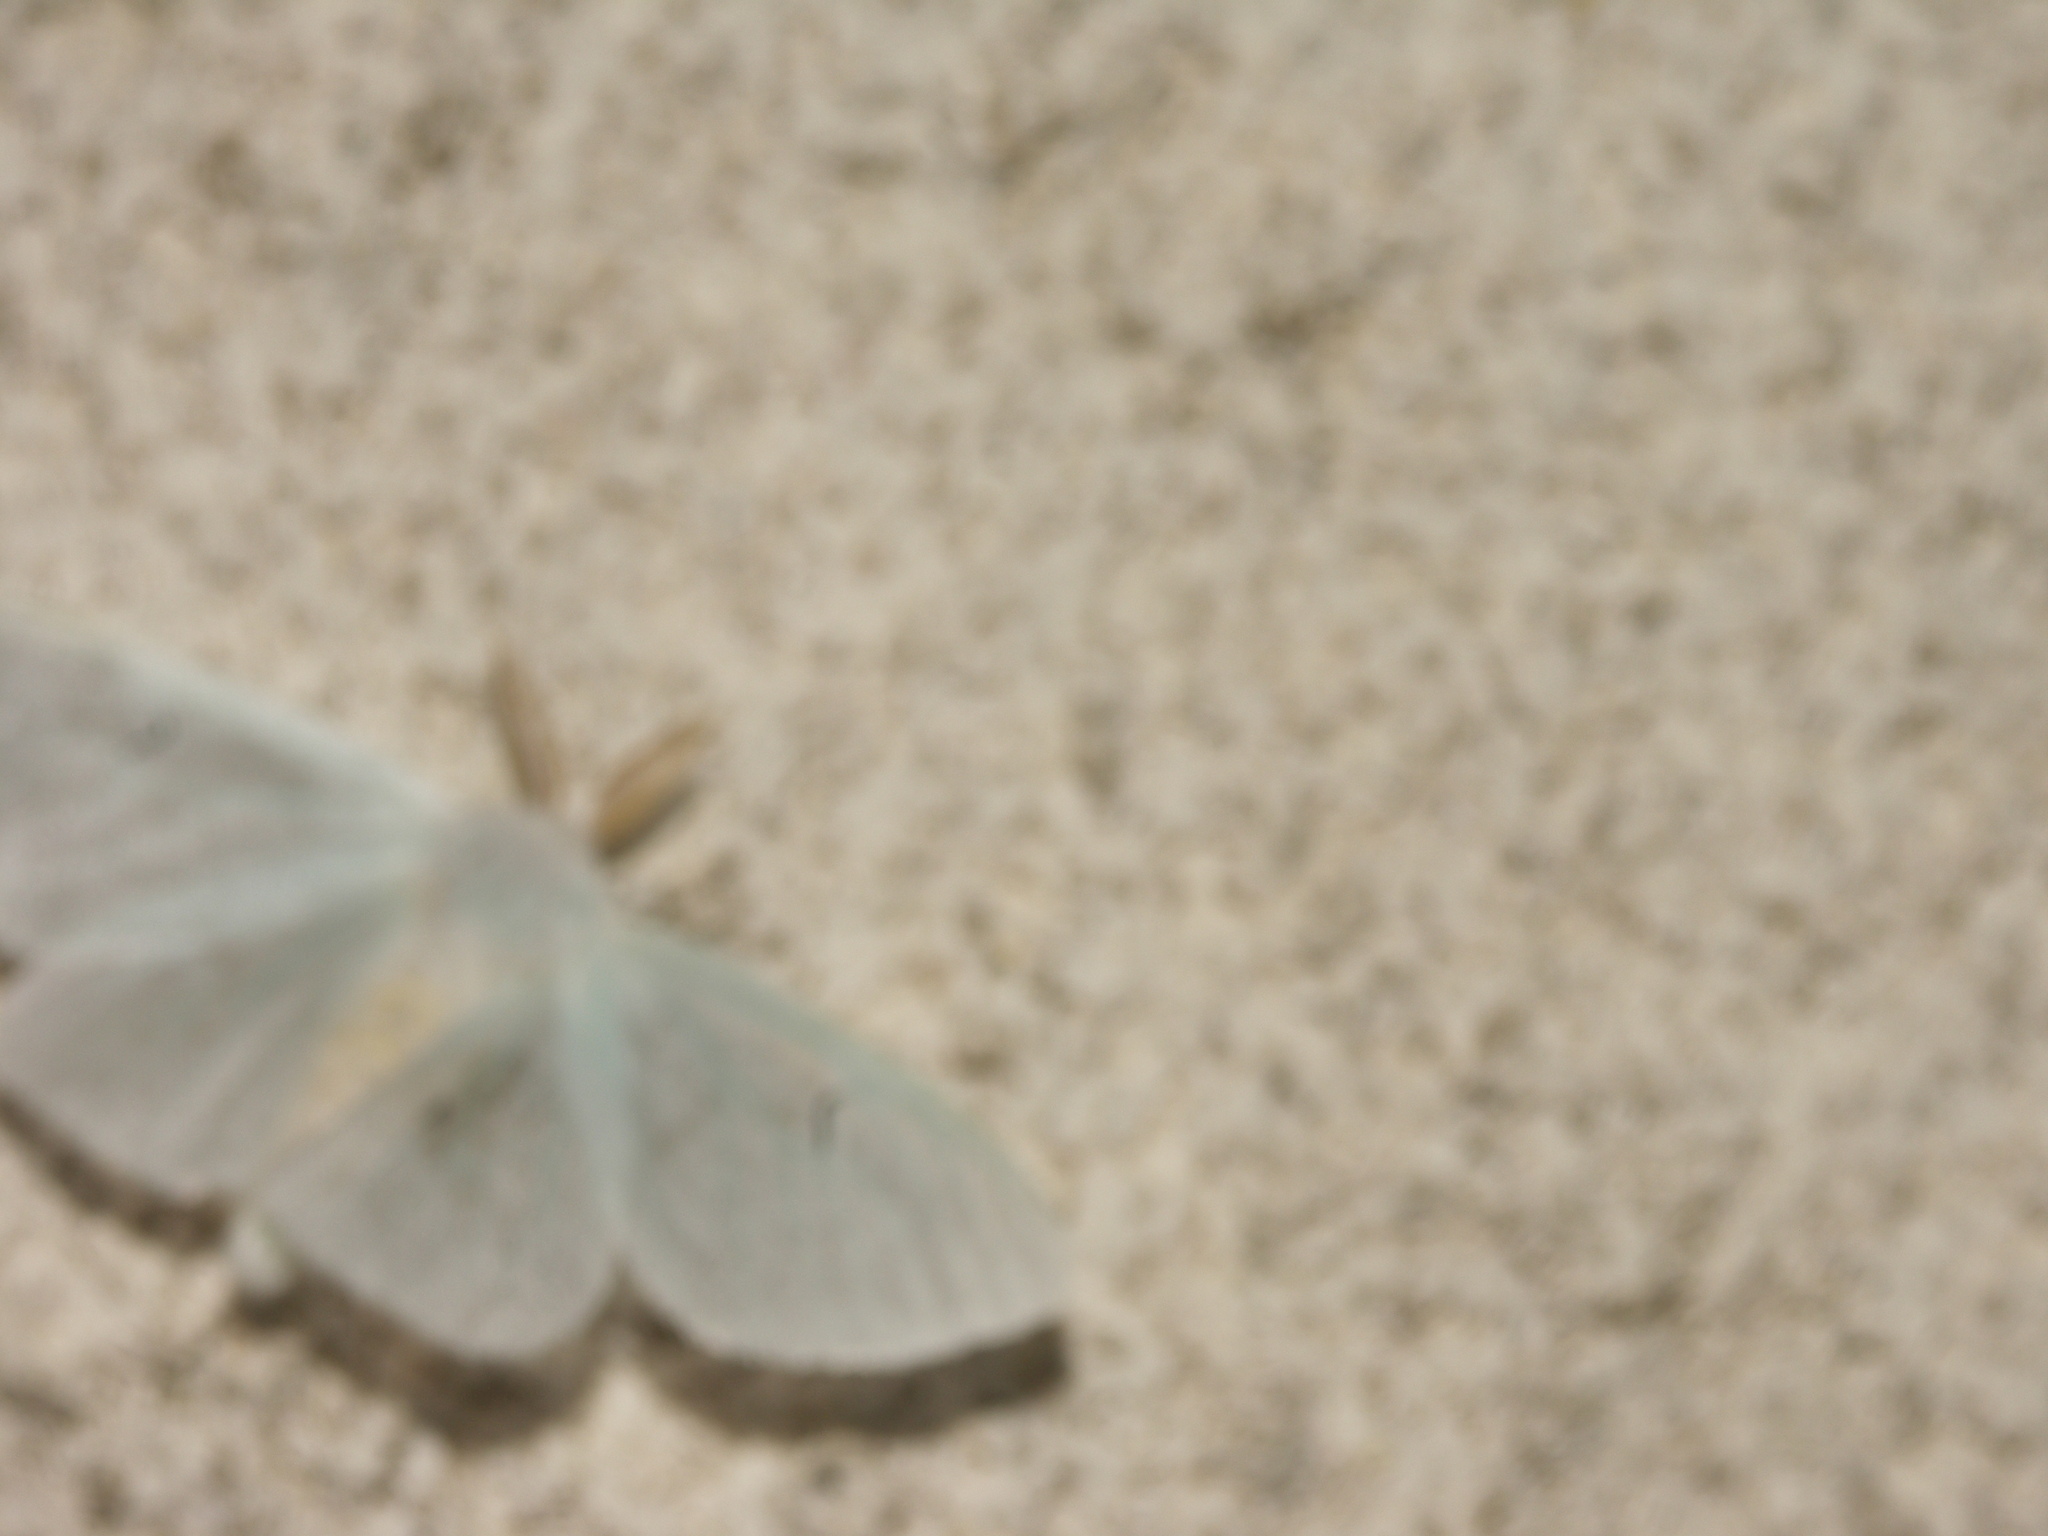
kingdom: Animalia
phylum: Arthropoda
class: Insecta
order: Lepidoptera
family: Erebidae
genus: Arctornis
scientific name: Arctornis l-nigrum
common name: Black v moth
